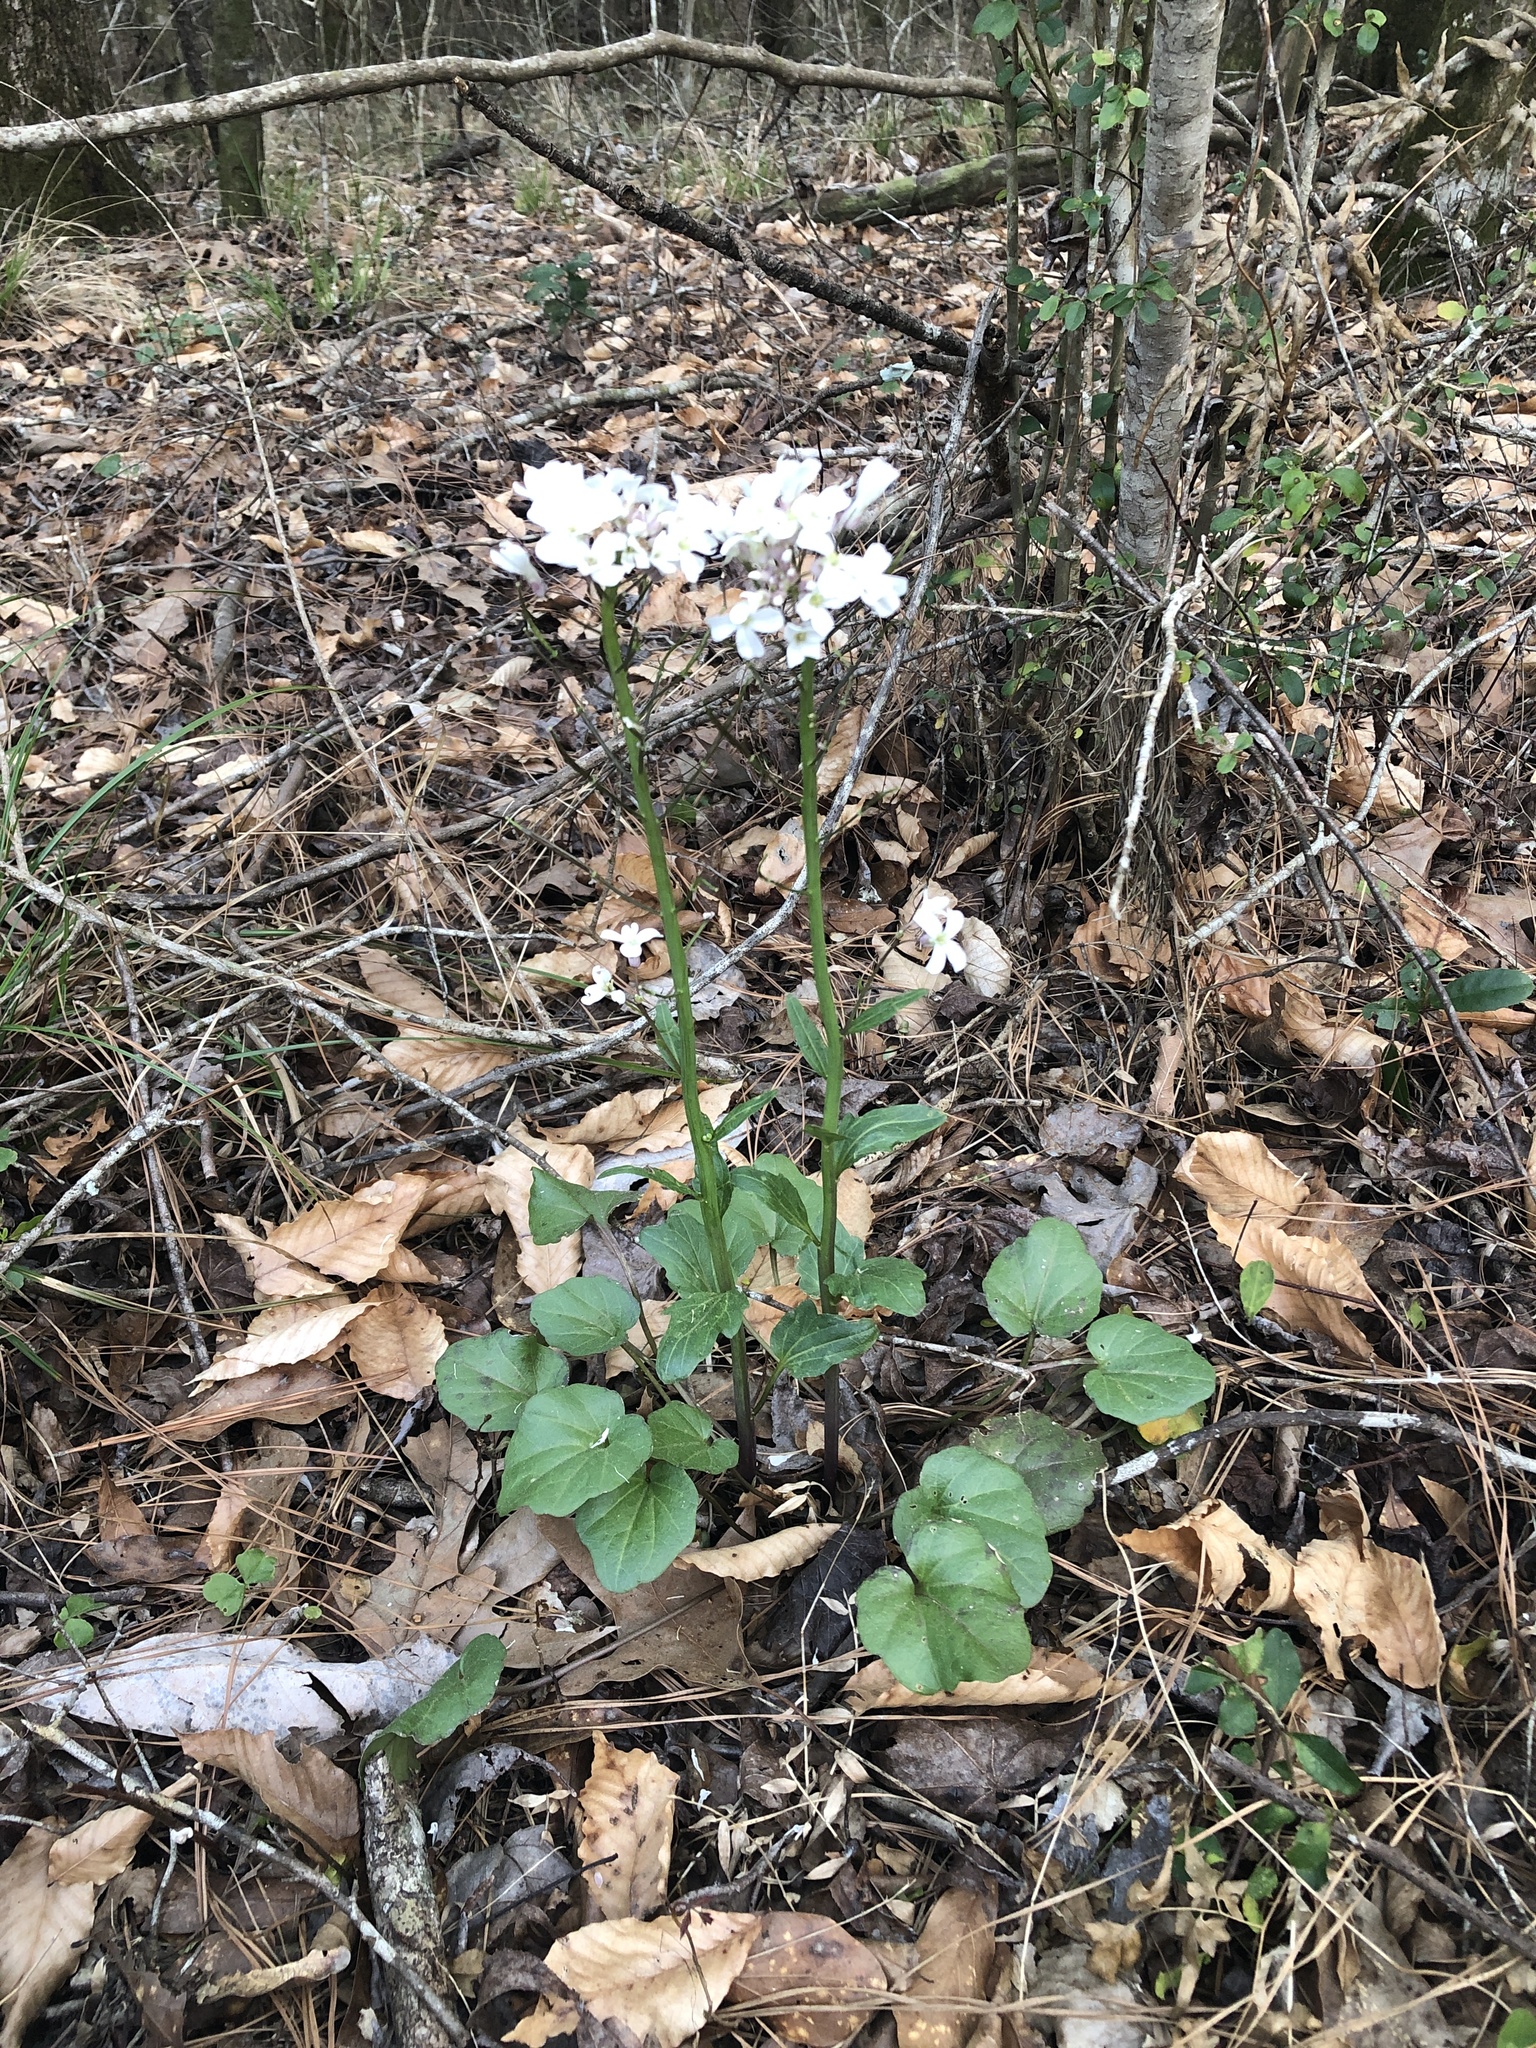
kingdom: Plantae
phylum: Tracheophyta
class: Magnoliopsida
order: Brassicales
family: Brassicaceae
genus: Cardamine
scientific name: Cardamine bulbosa
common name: Spring cress
